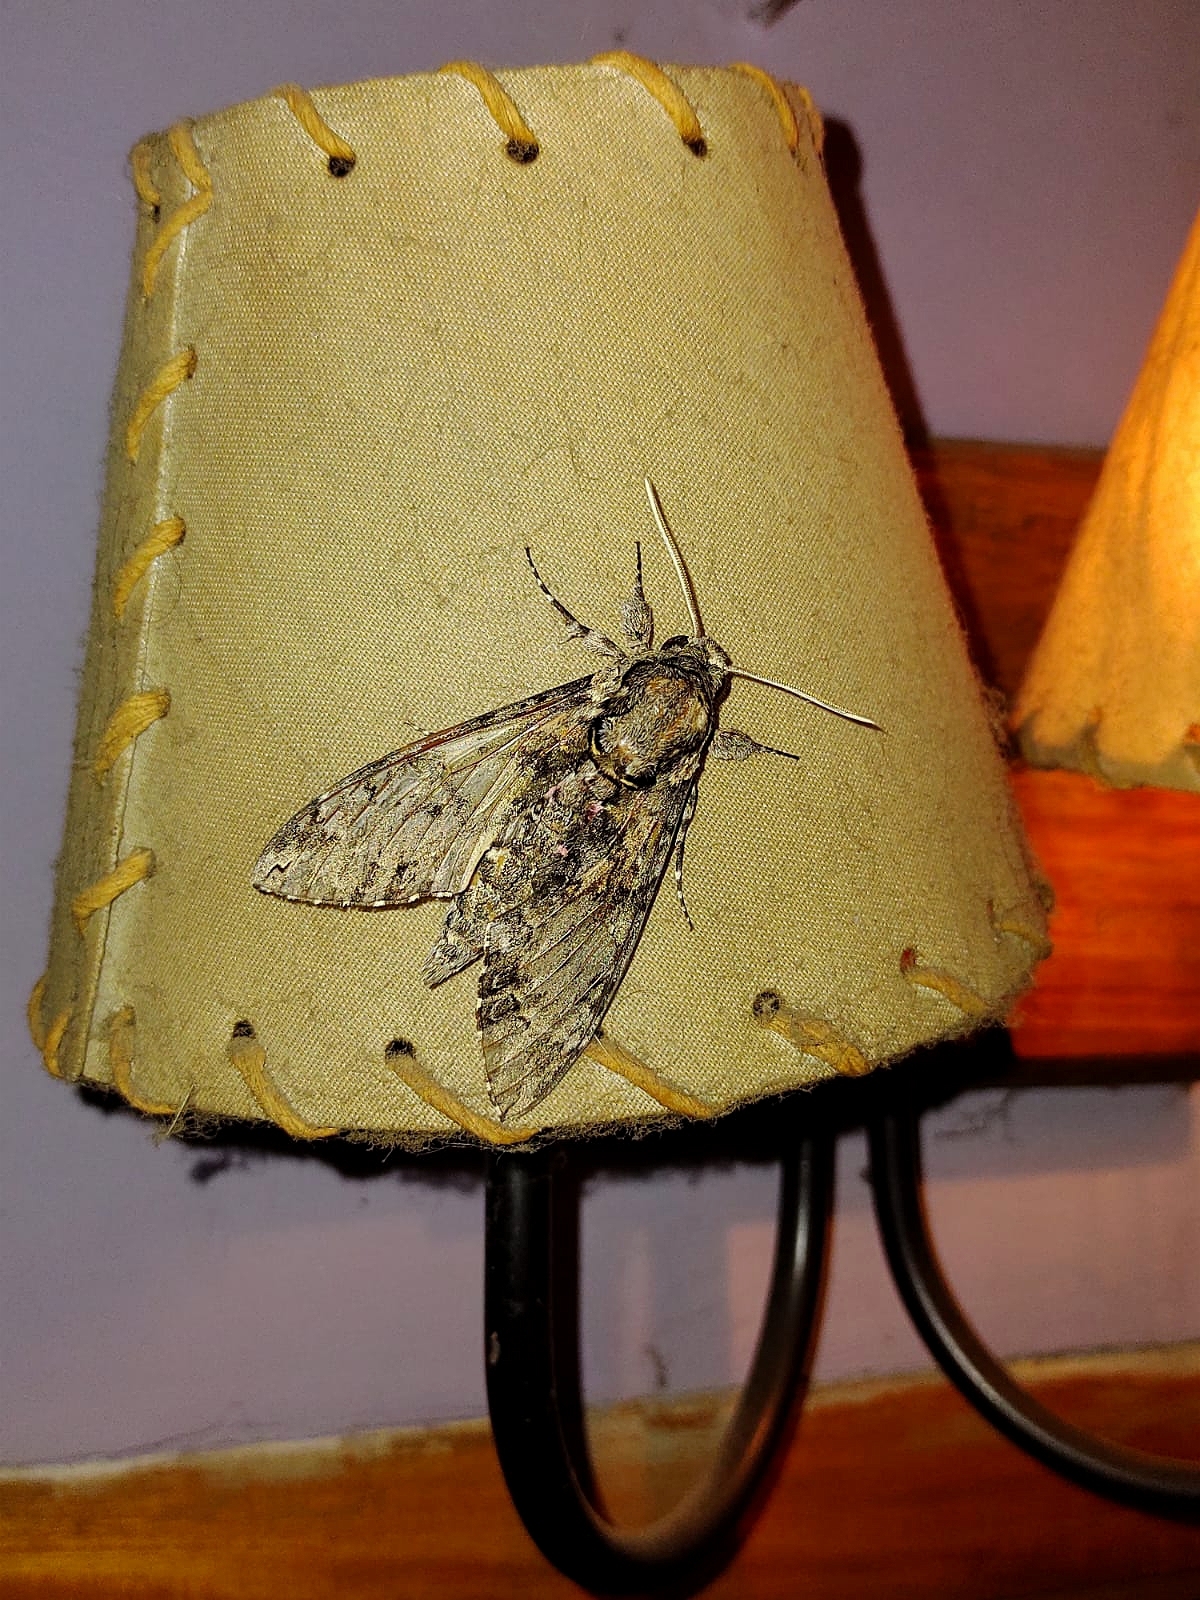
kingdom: Animalia
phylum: Arthropoda
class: Insecta
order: Lepidoptera
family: Sphingidae
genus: Agrius
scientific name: Agrius cingulata
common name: Pink-spotted hawkmoth
